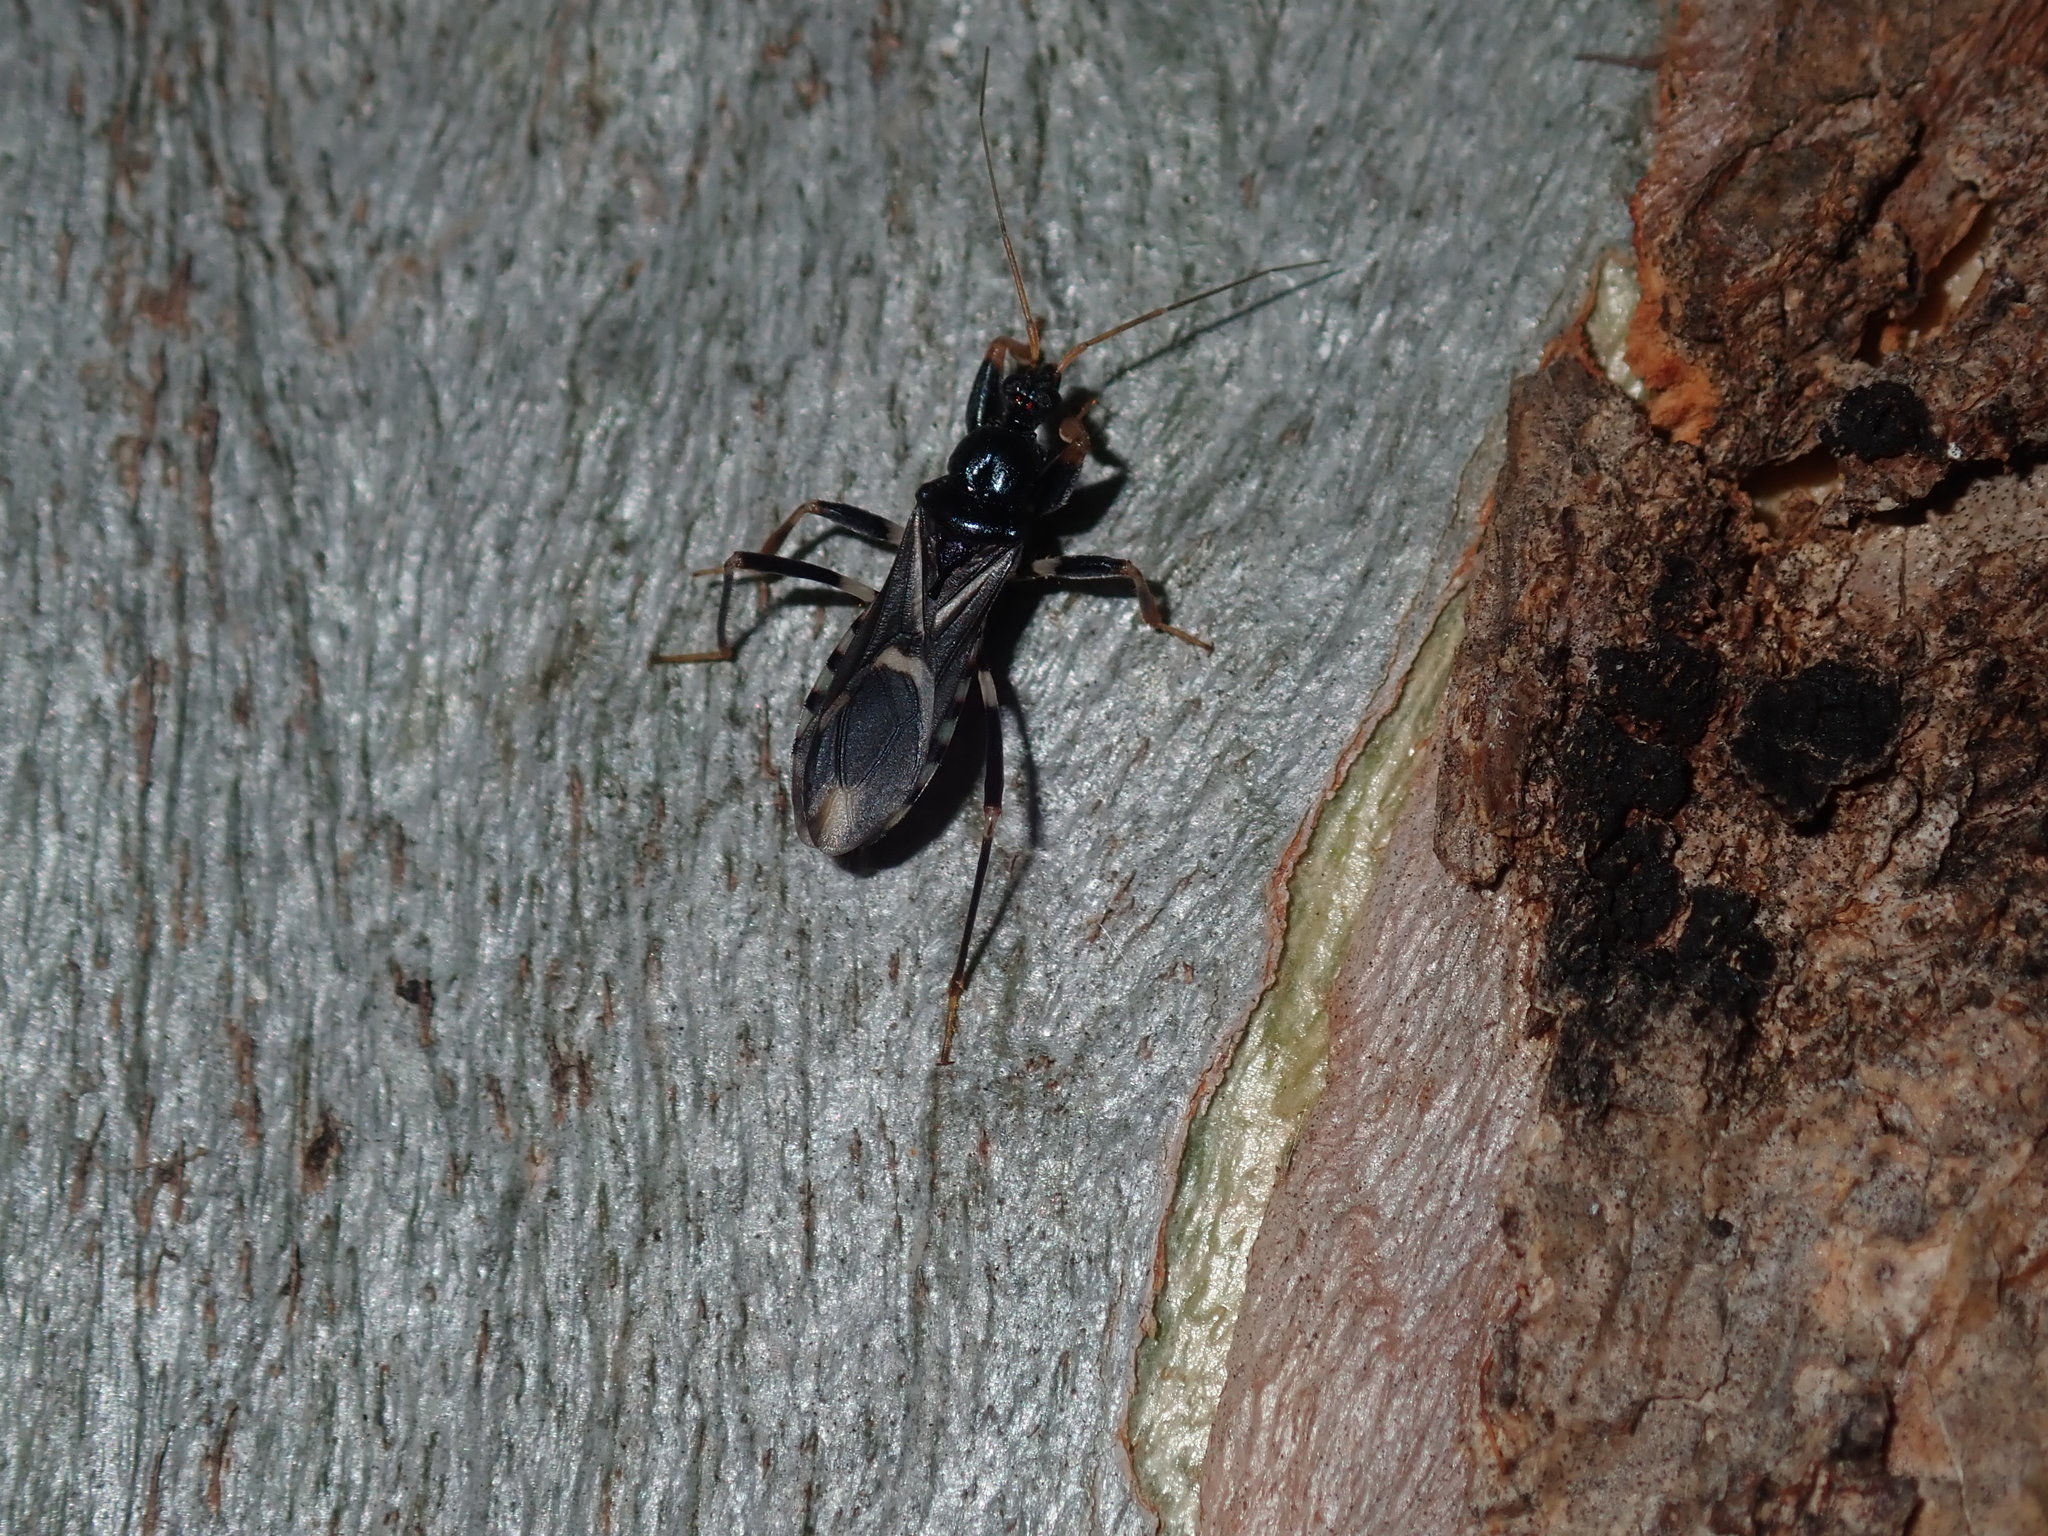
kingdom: Animalia
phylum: Arthropoda
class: Insecta
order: Hemiptera
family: Reduviidae
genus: Ectomocoris
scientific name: Ectomocoris decoratus
